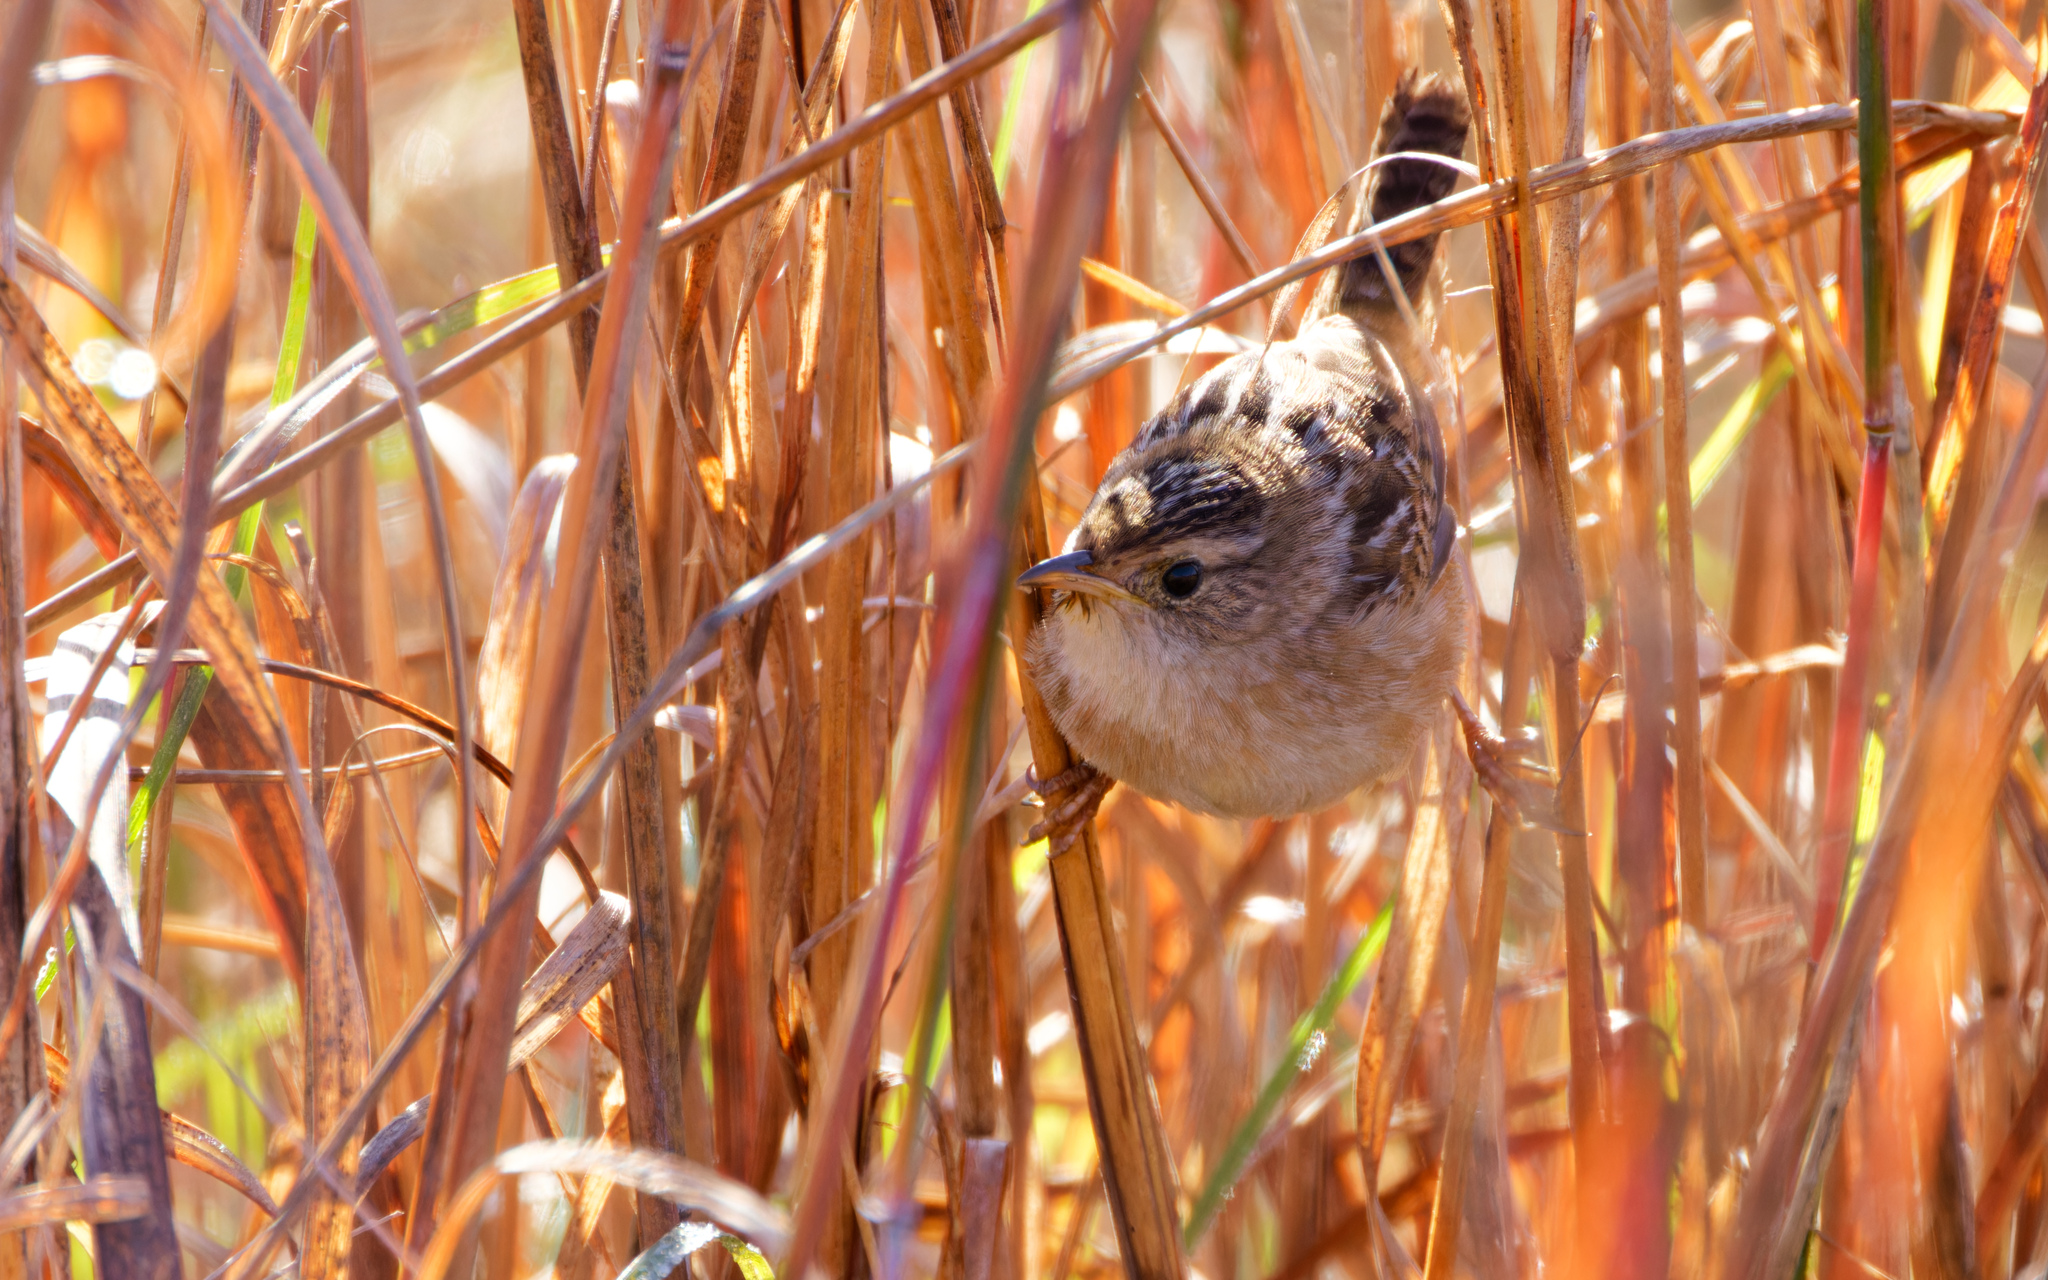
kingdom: Animalia
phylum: Chordata
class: Aves
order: Passeriformes
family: Troglodytidae
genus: Cistothorus
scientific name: Cistothorus platensis
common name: Sedge wren
